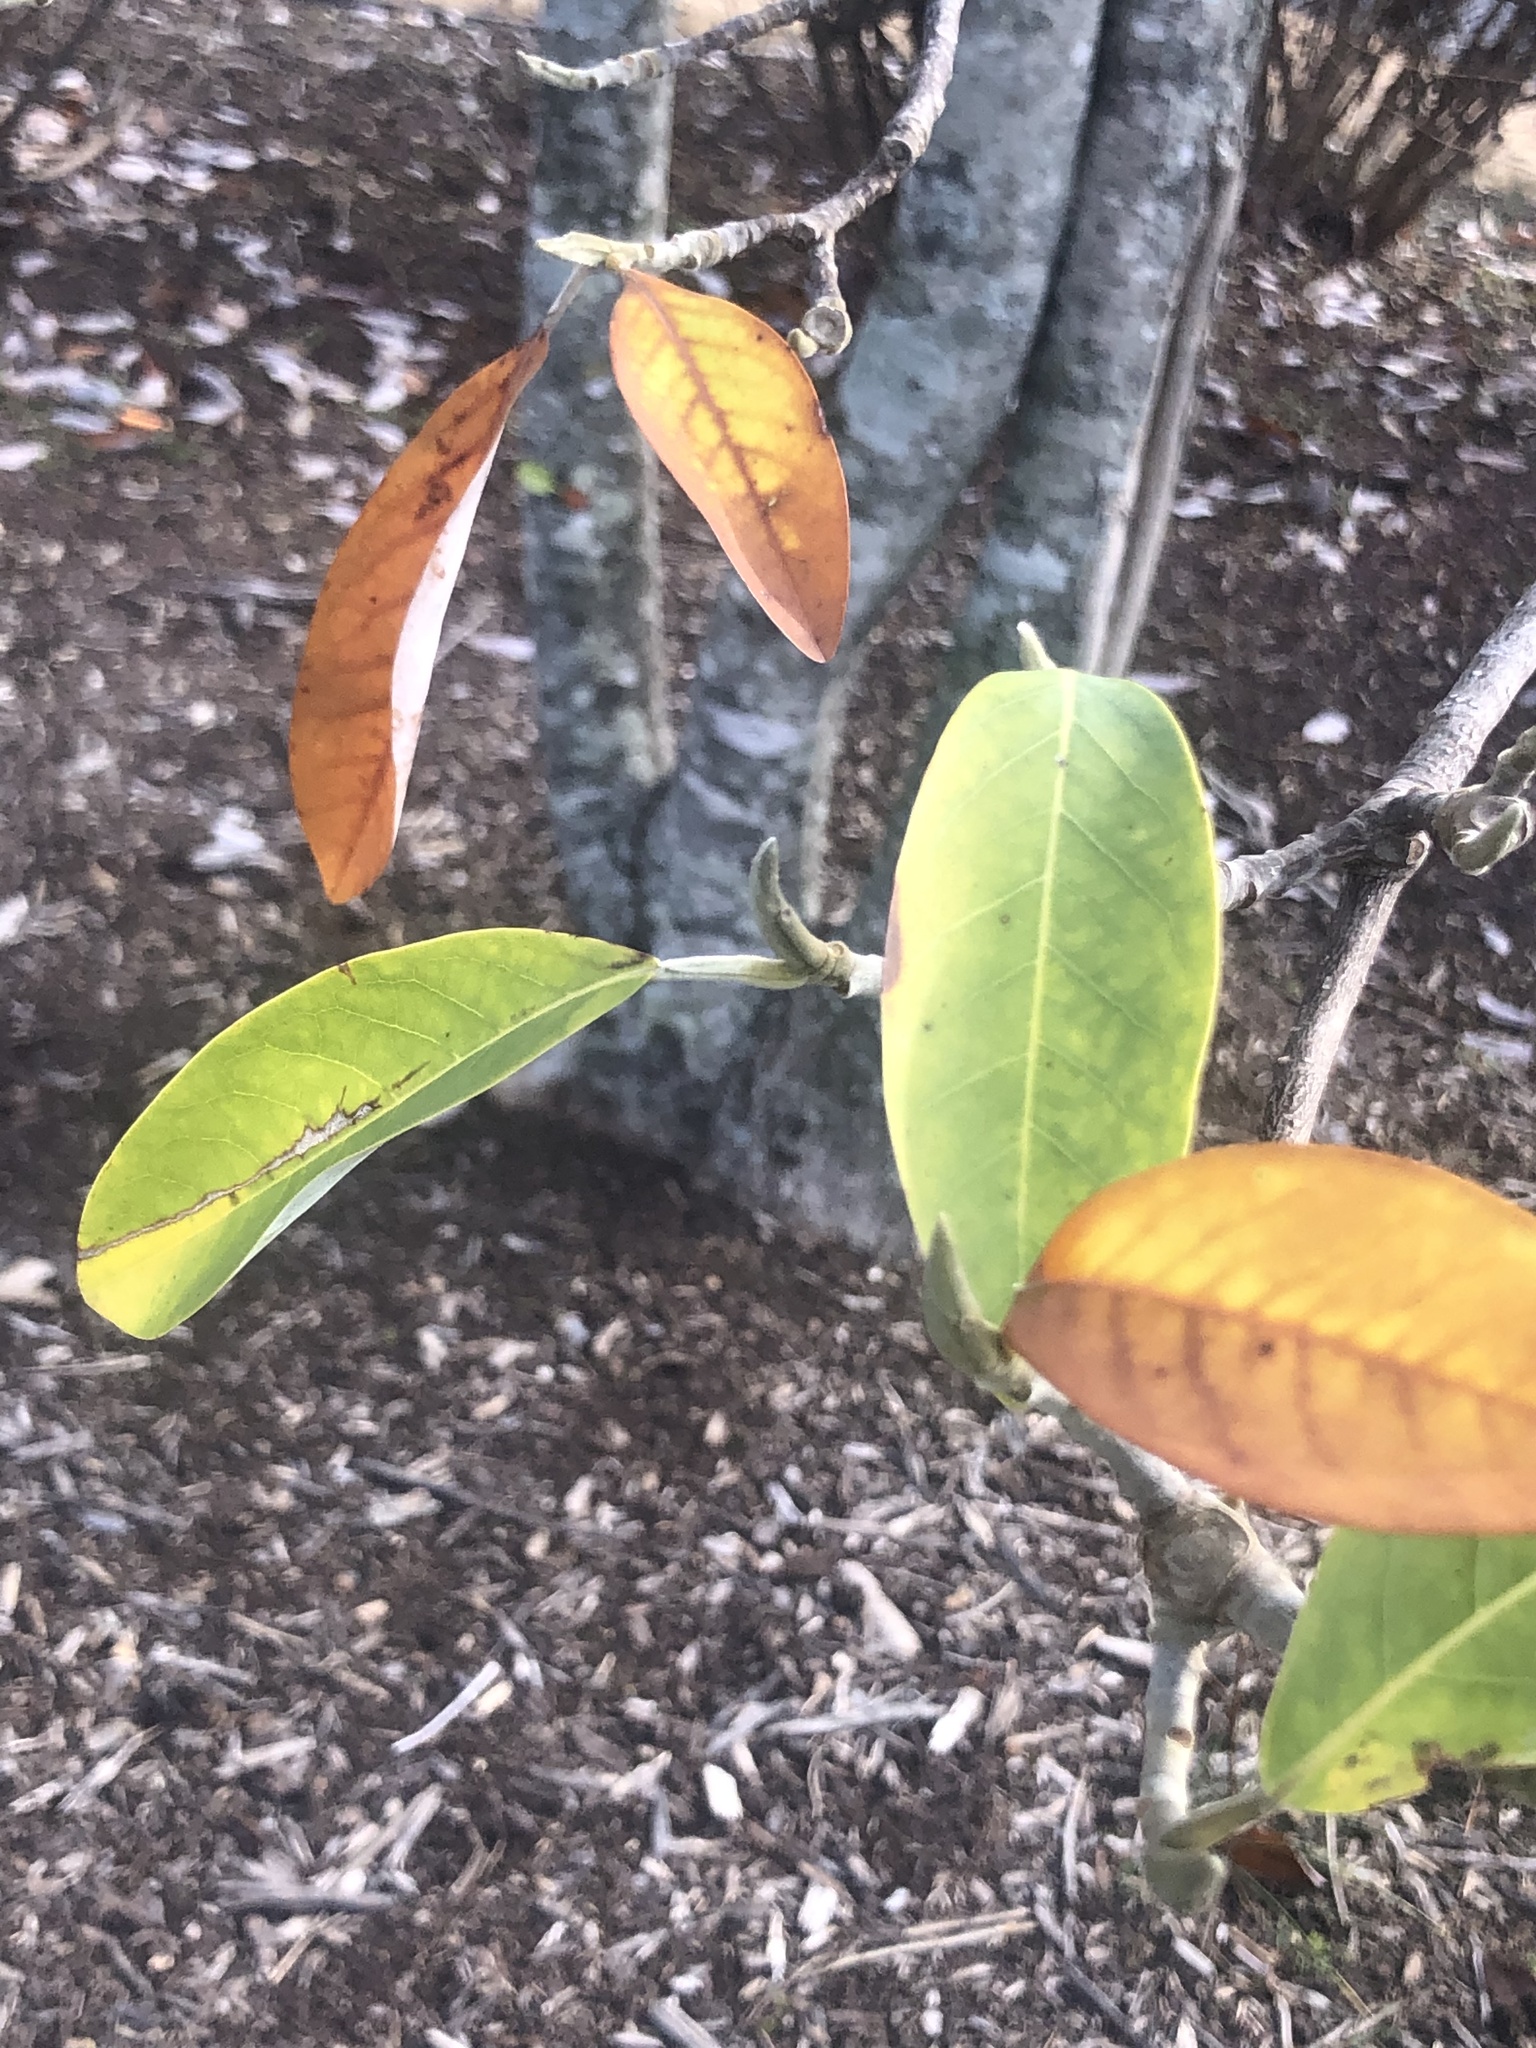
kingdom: Plantae
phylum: Tracheophyta
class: Magnoliopsida
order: Magnoliales
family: Magnoliaceae
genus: Magnolia
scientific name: Magnolia virginiana
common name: Swamp bay
